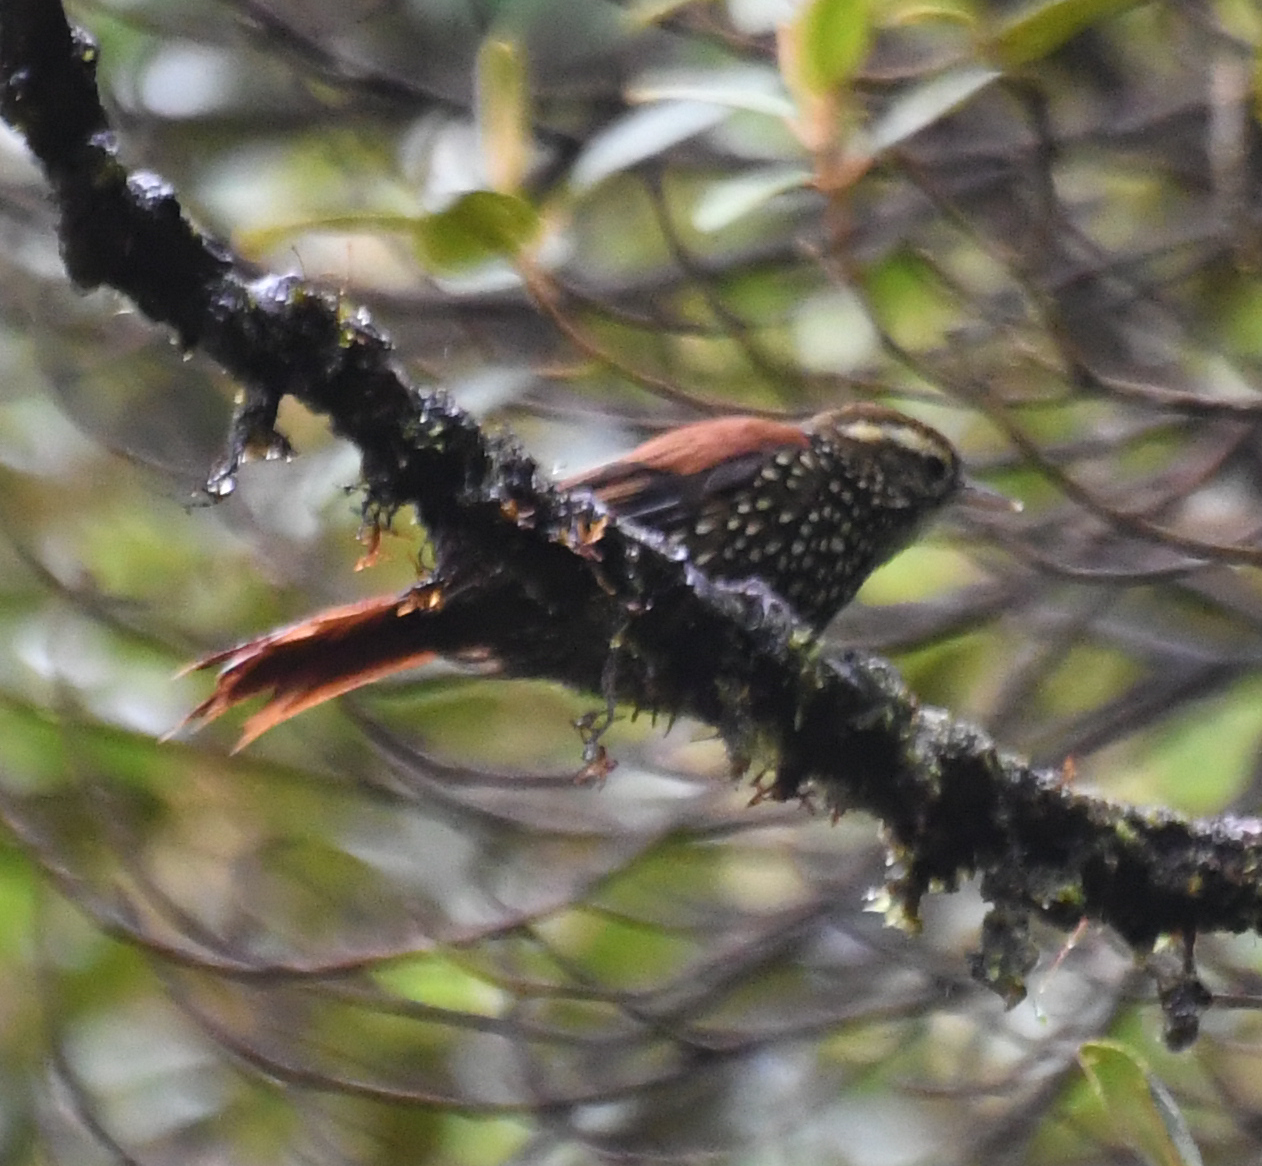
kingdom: Animalia
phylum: Chordata
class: Aves
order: Passeriformes
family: Furnariidae
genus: Margarornis
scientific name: Margarornis squamiger
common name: Pearled treerunner
